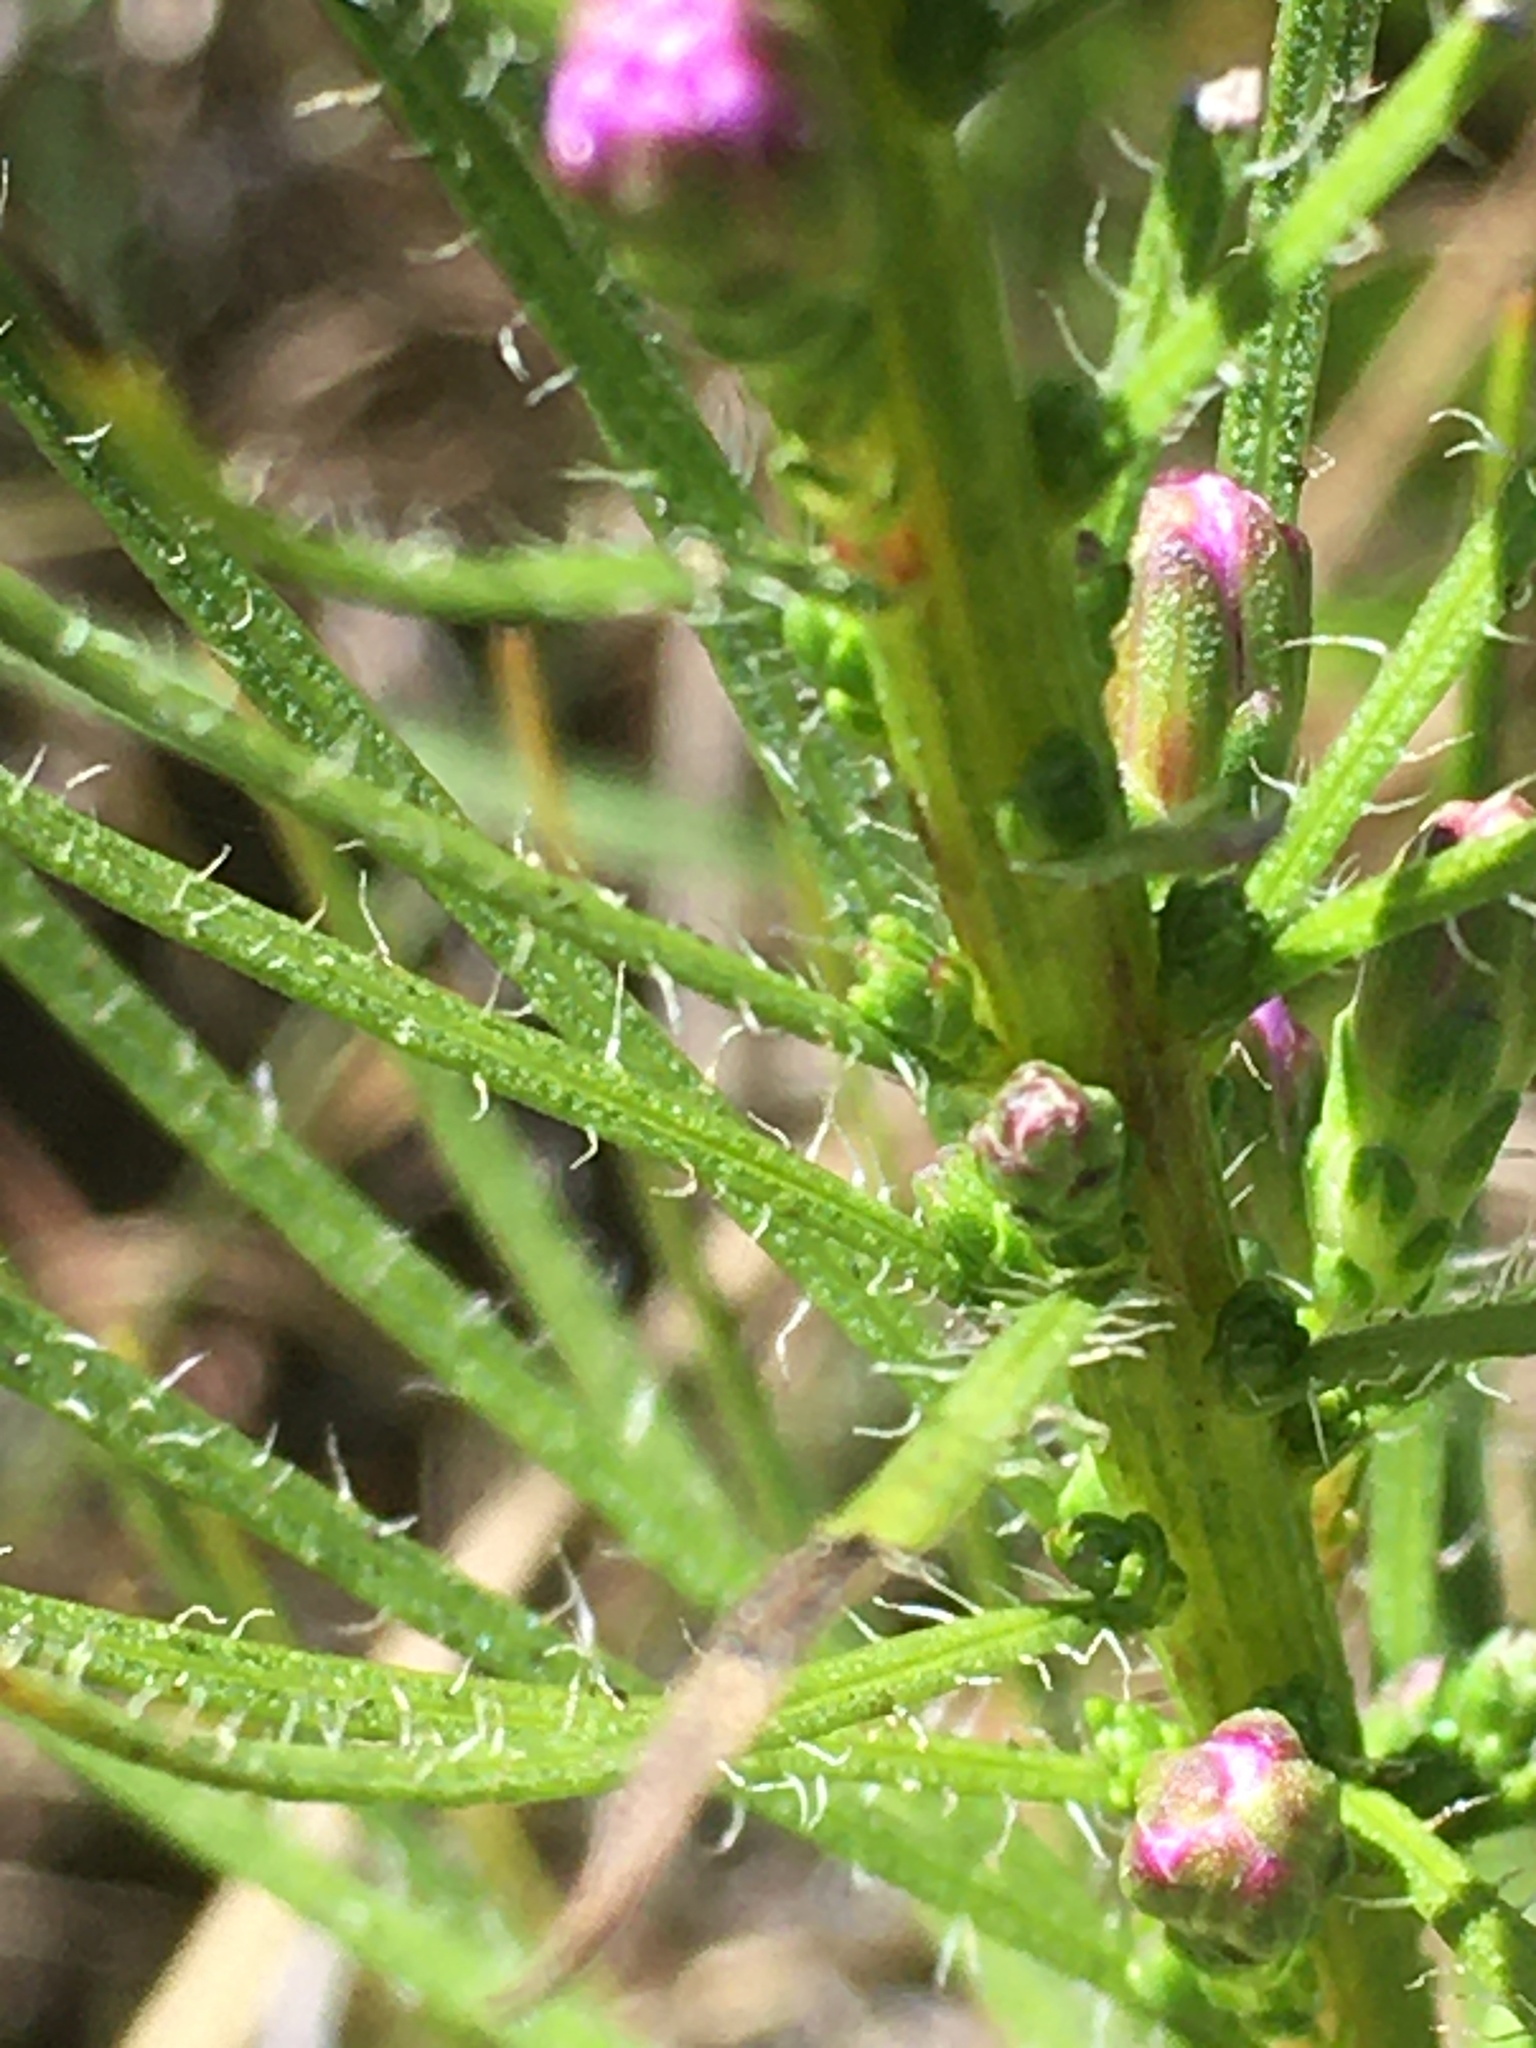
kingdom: Plantae
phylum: Tracheophyta
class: Magnoliopsida
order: Asterales
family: Asteraceae
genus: Liatris
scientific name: Liatris pilosa
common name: Grass-leaf gayfeather
